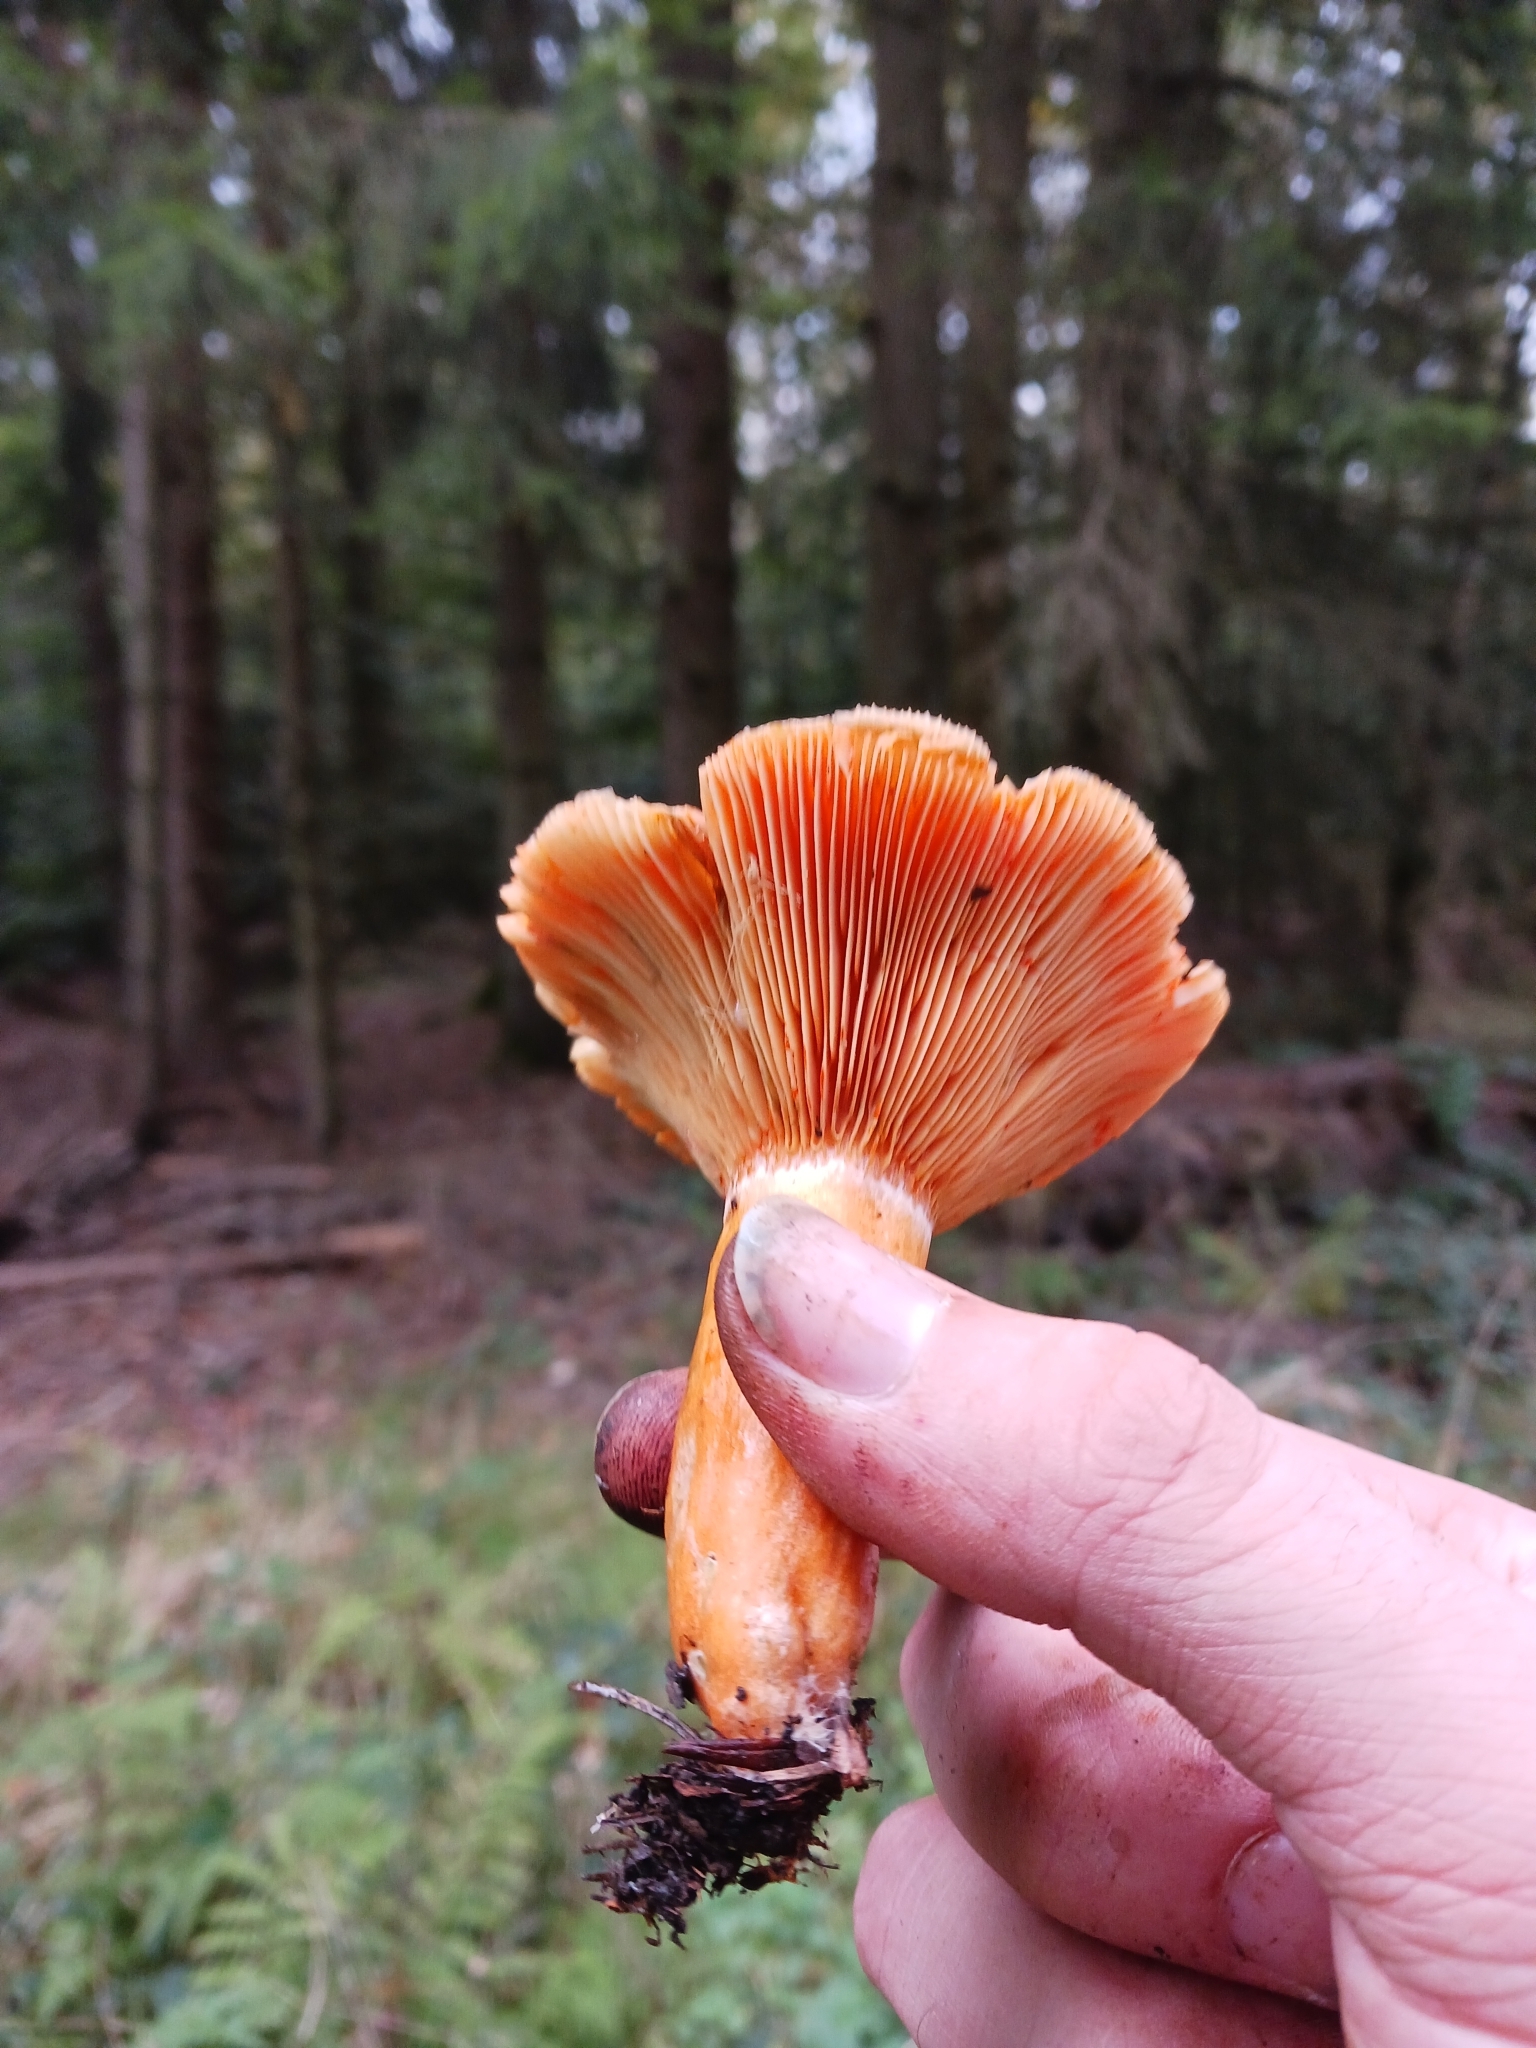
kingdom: Fungi
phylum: Basidiomycota
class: Agaricomycetes
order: Russulales
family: Russulaceae
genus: Lactarius
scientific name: Lactarius deterrimus
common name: False saffron milkcap
